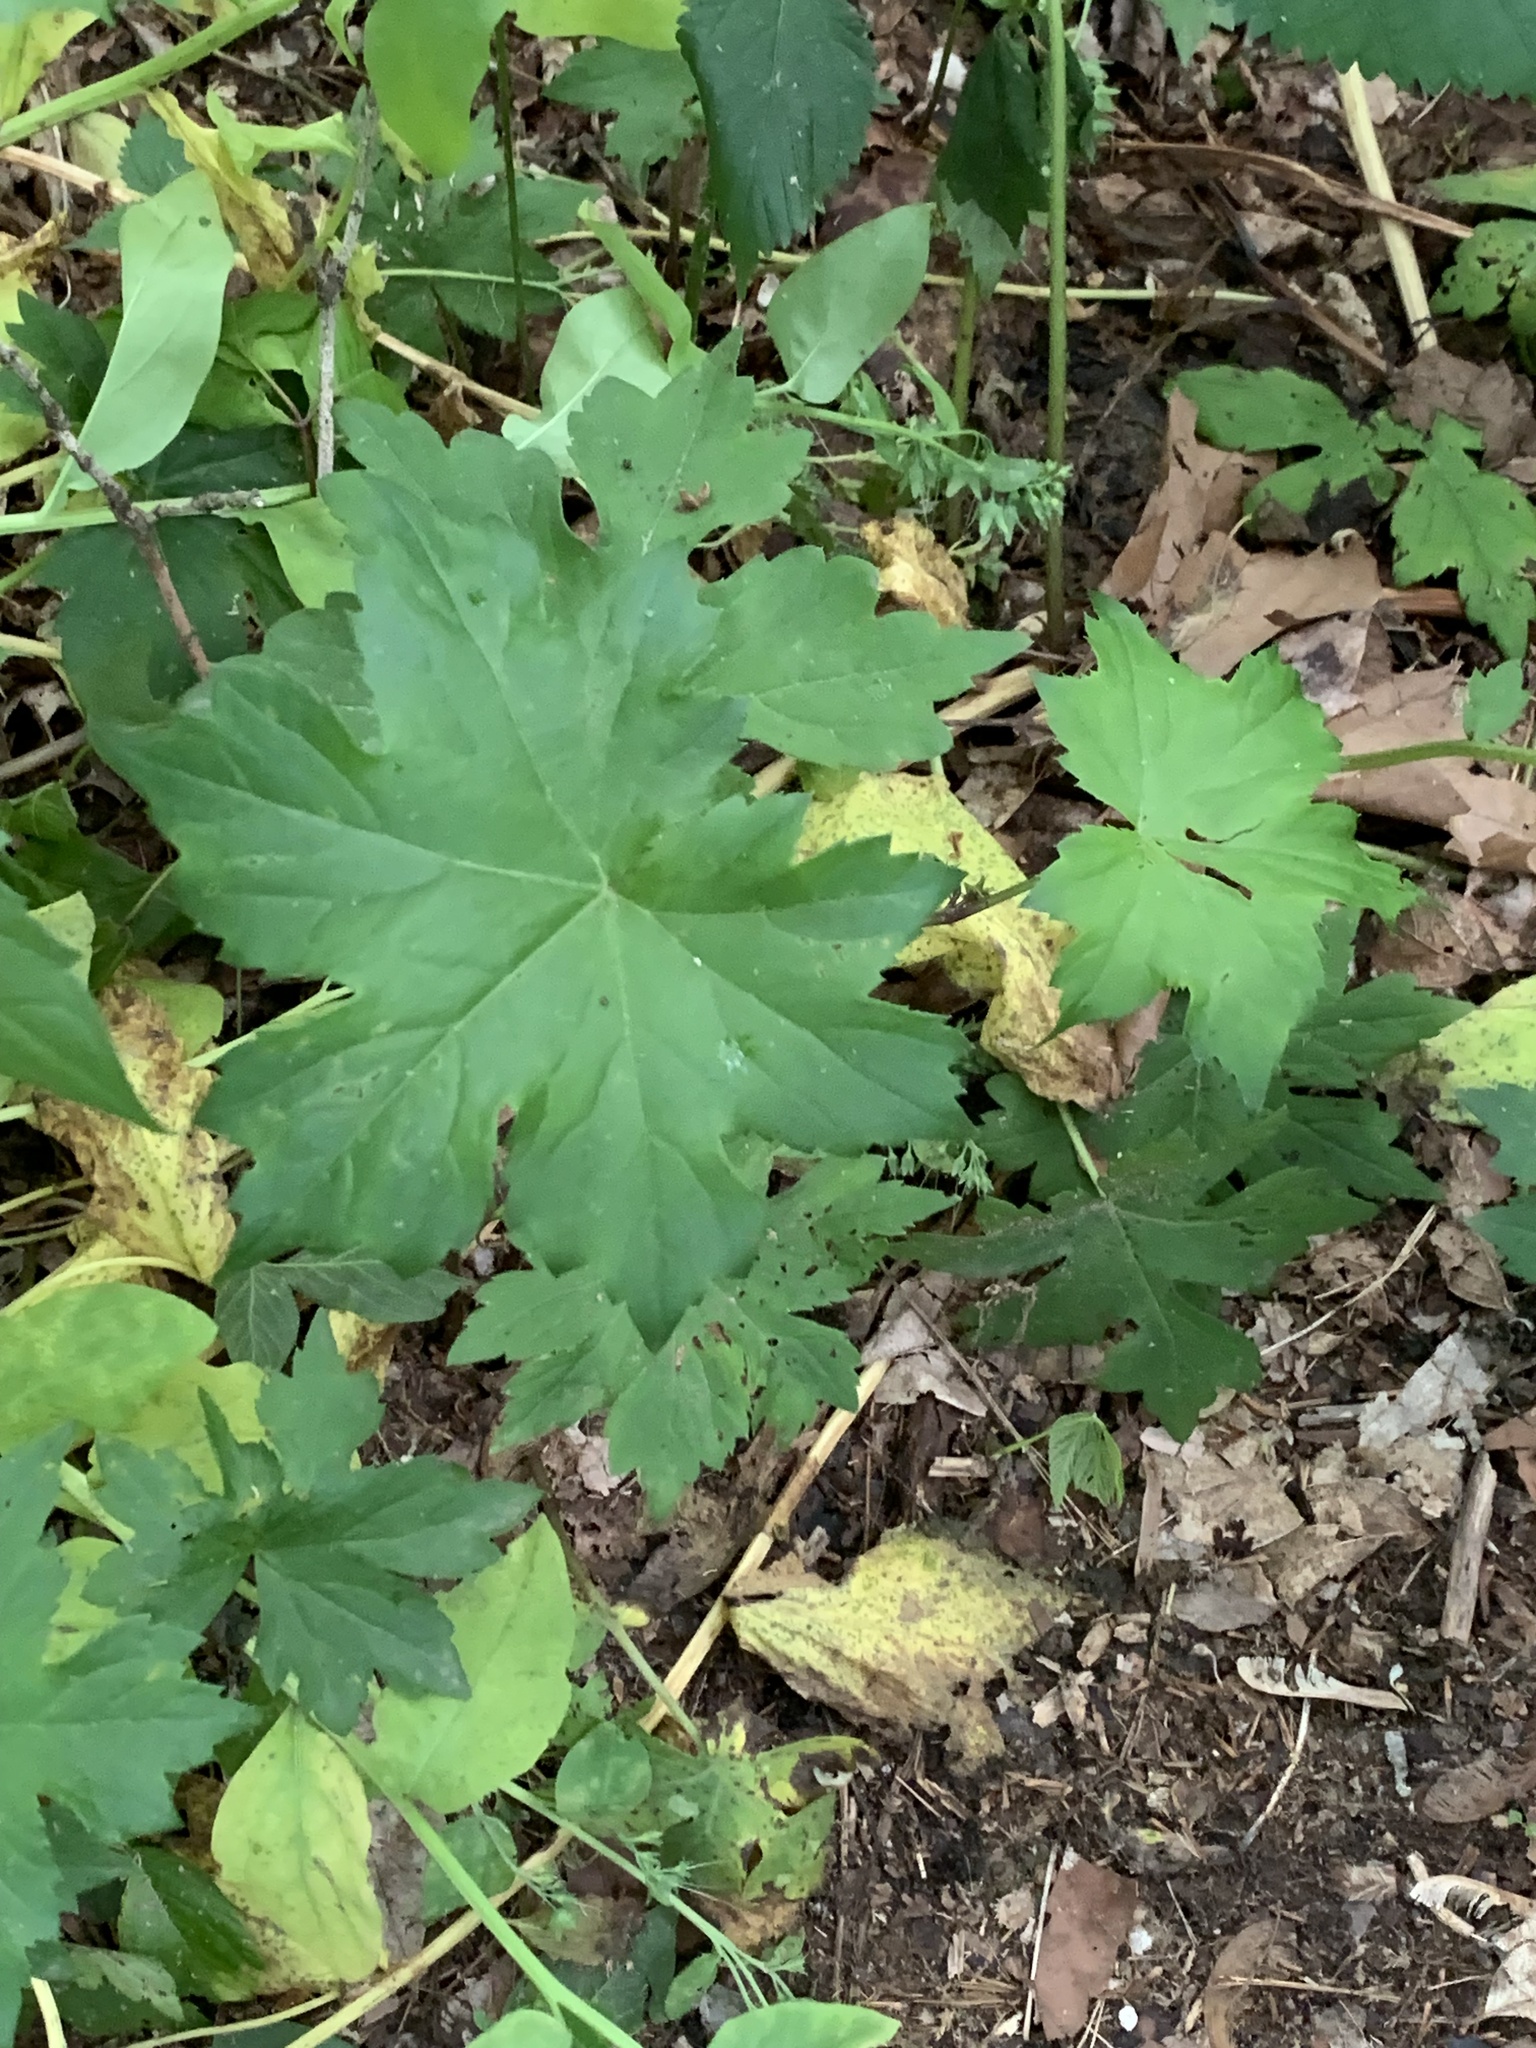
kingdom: Plantae
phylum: Tracheophyta
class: Magnoliopsida
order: Boraginales
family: Hydrophyllaceae
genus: Hydrophyllum
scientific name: Hydrophyllum canadense
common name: Canada waterleaf
